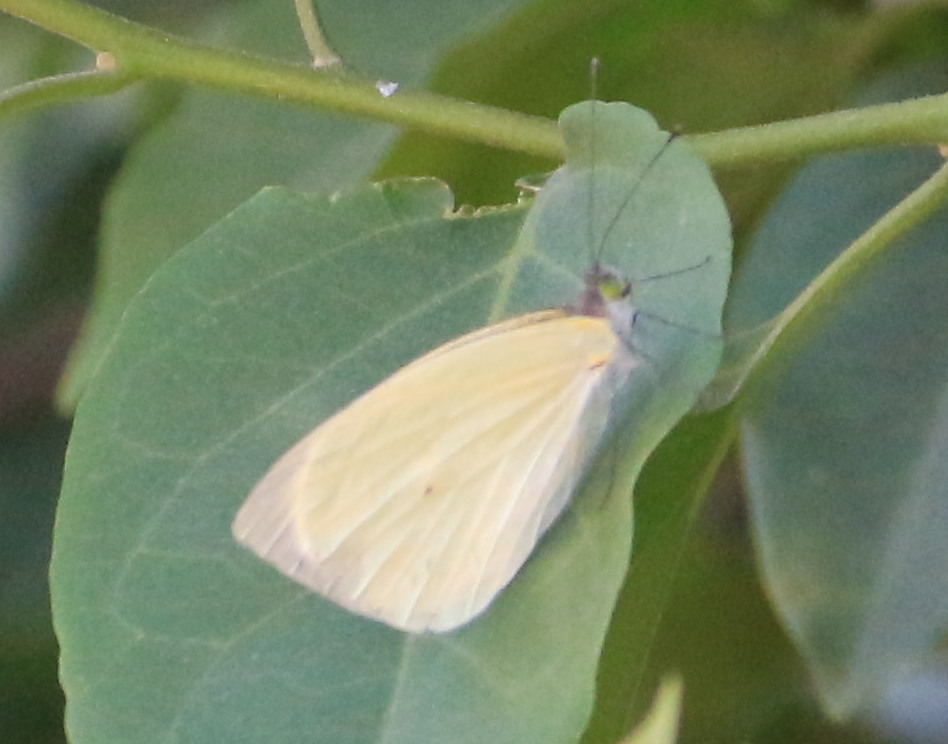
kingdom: Animalia
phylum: Arthropoda
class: Insecta
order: Lepidoptera
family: Pieridae
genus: Leptophobia
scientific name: Leptophobia aripa
